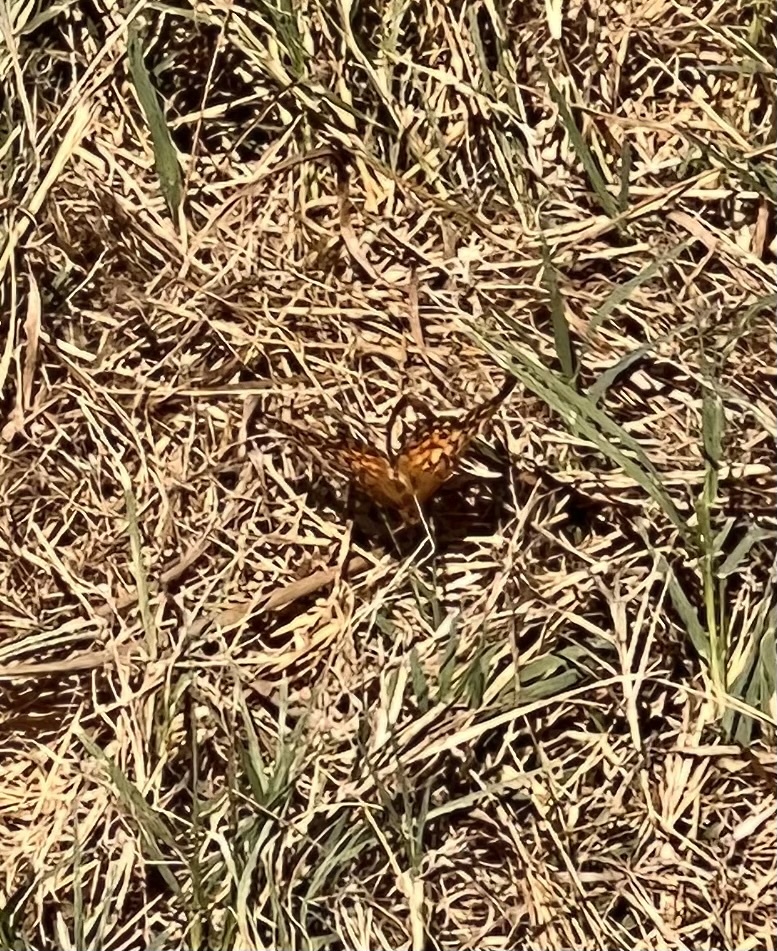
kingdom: Animalia
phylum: Arthropoda
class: Insecta
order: Lepidoptera
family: Nymphalidae
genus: Euptoieta
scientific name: Euptoieta claudia
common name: Variegated fritillary
